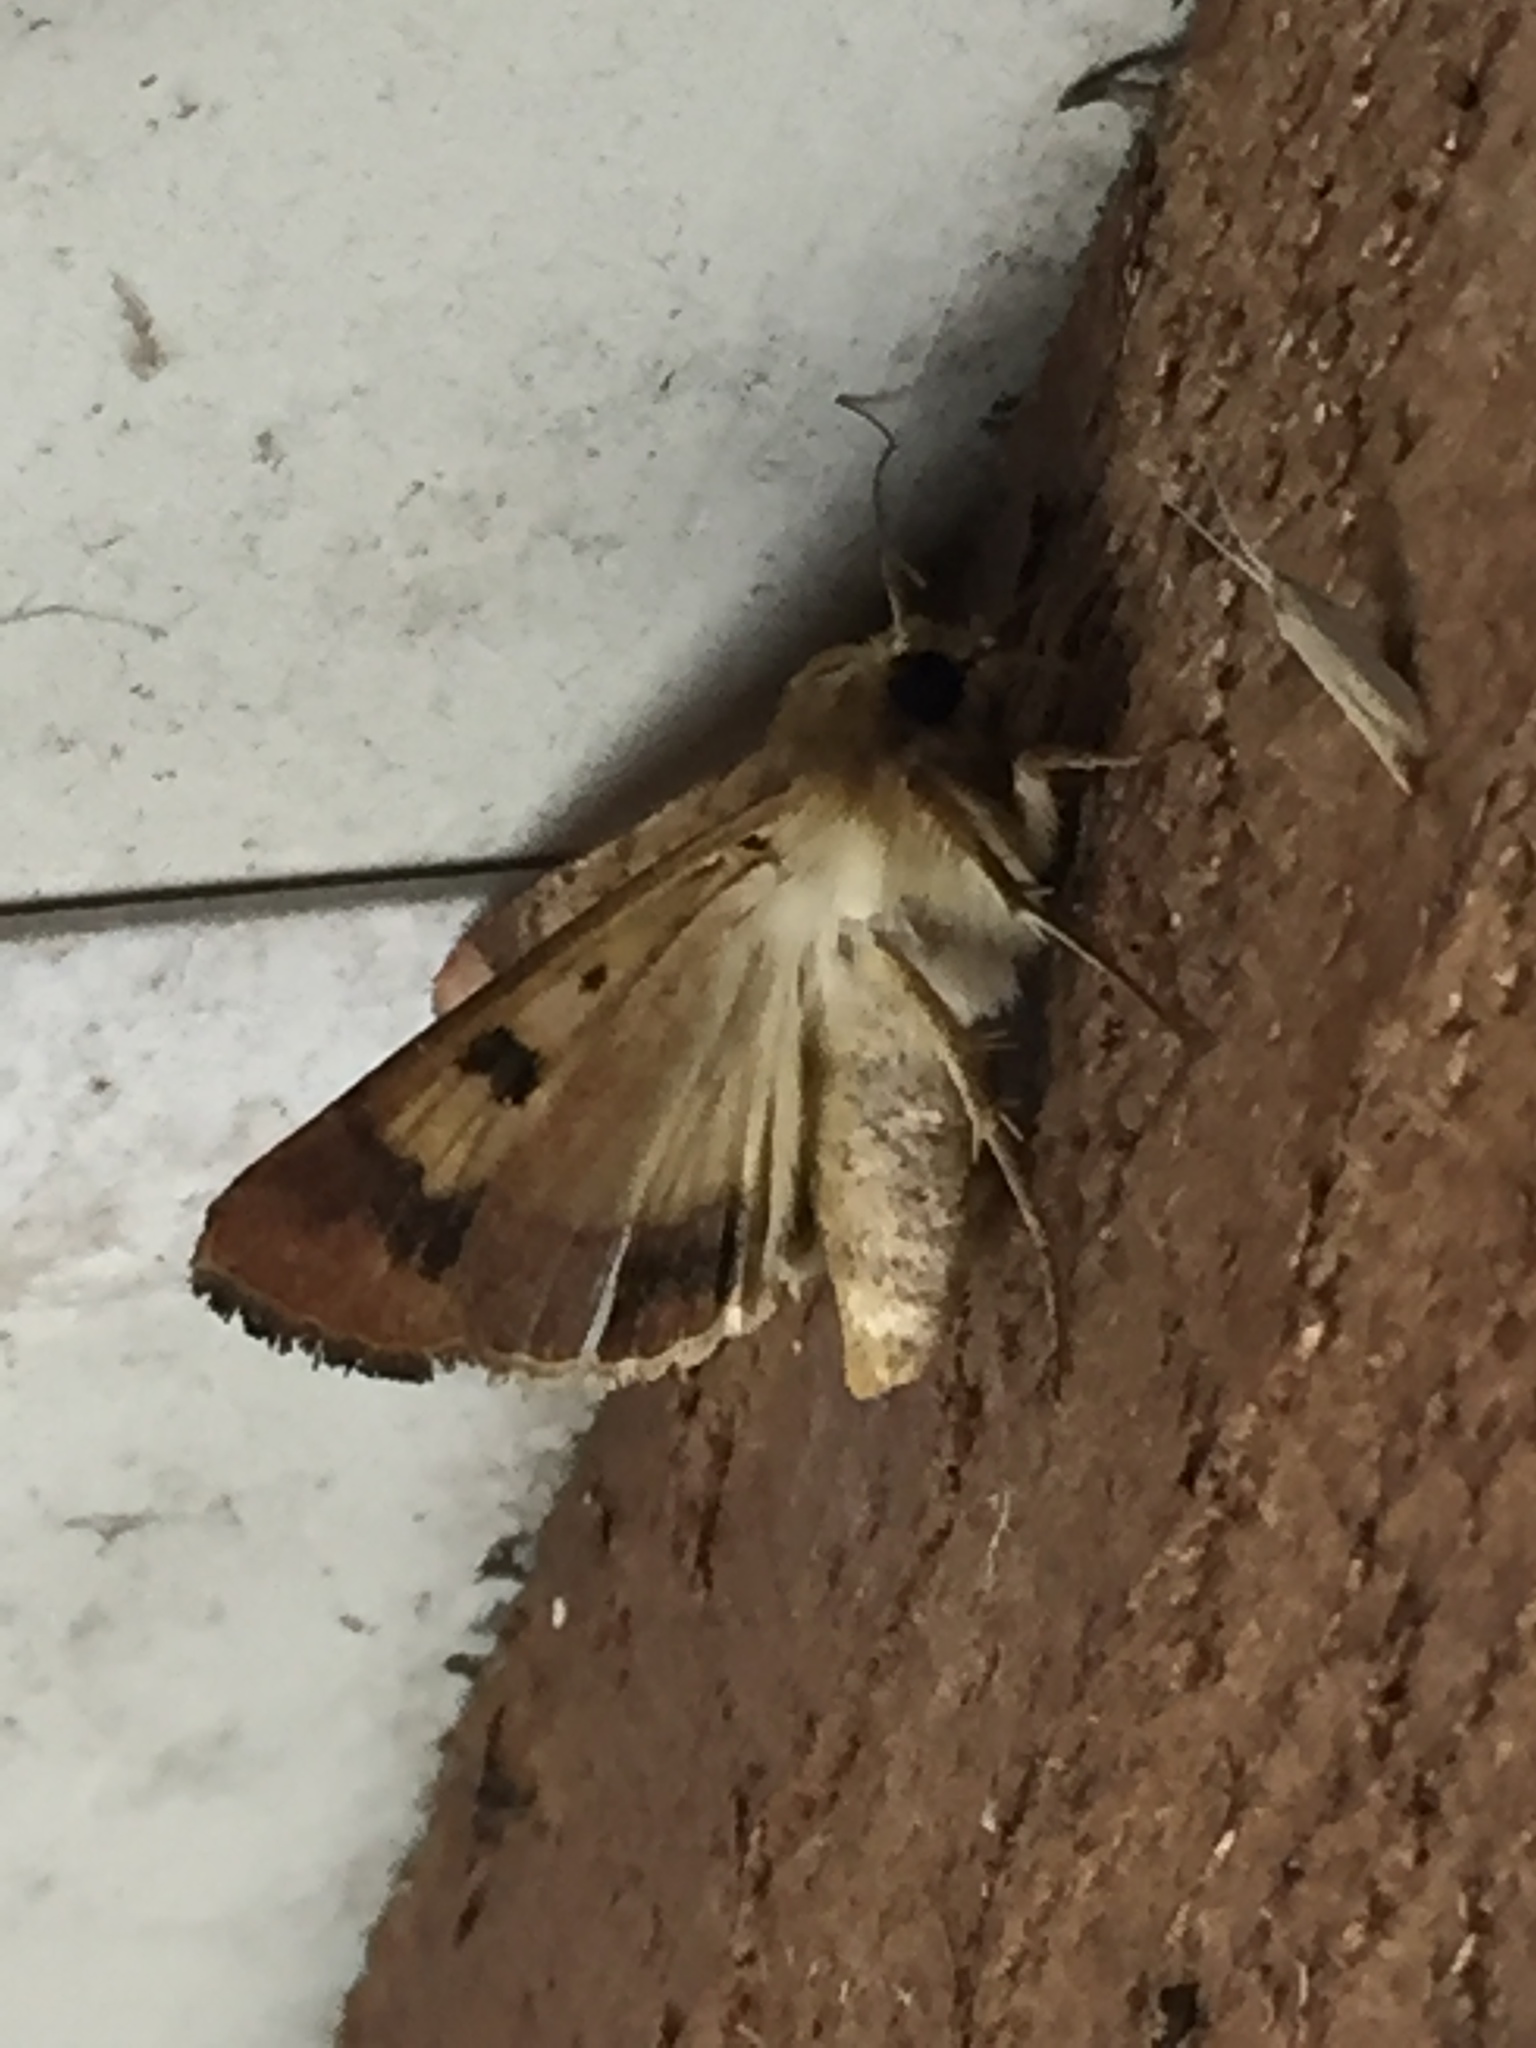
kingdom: Animalia
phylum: Arthropoda
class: Insecta
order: Lepidoptera
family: Noctuidae
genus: Helicoverpa
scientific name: Helicoverpa armigera
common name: Cotton bollworm
